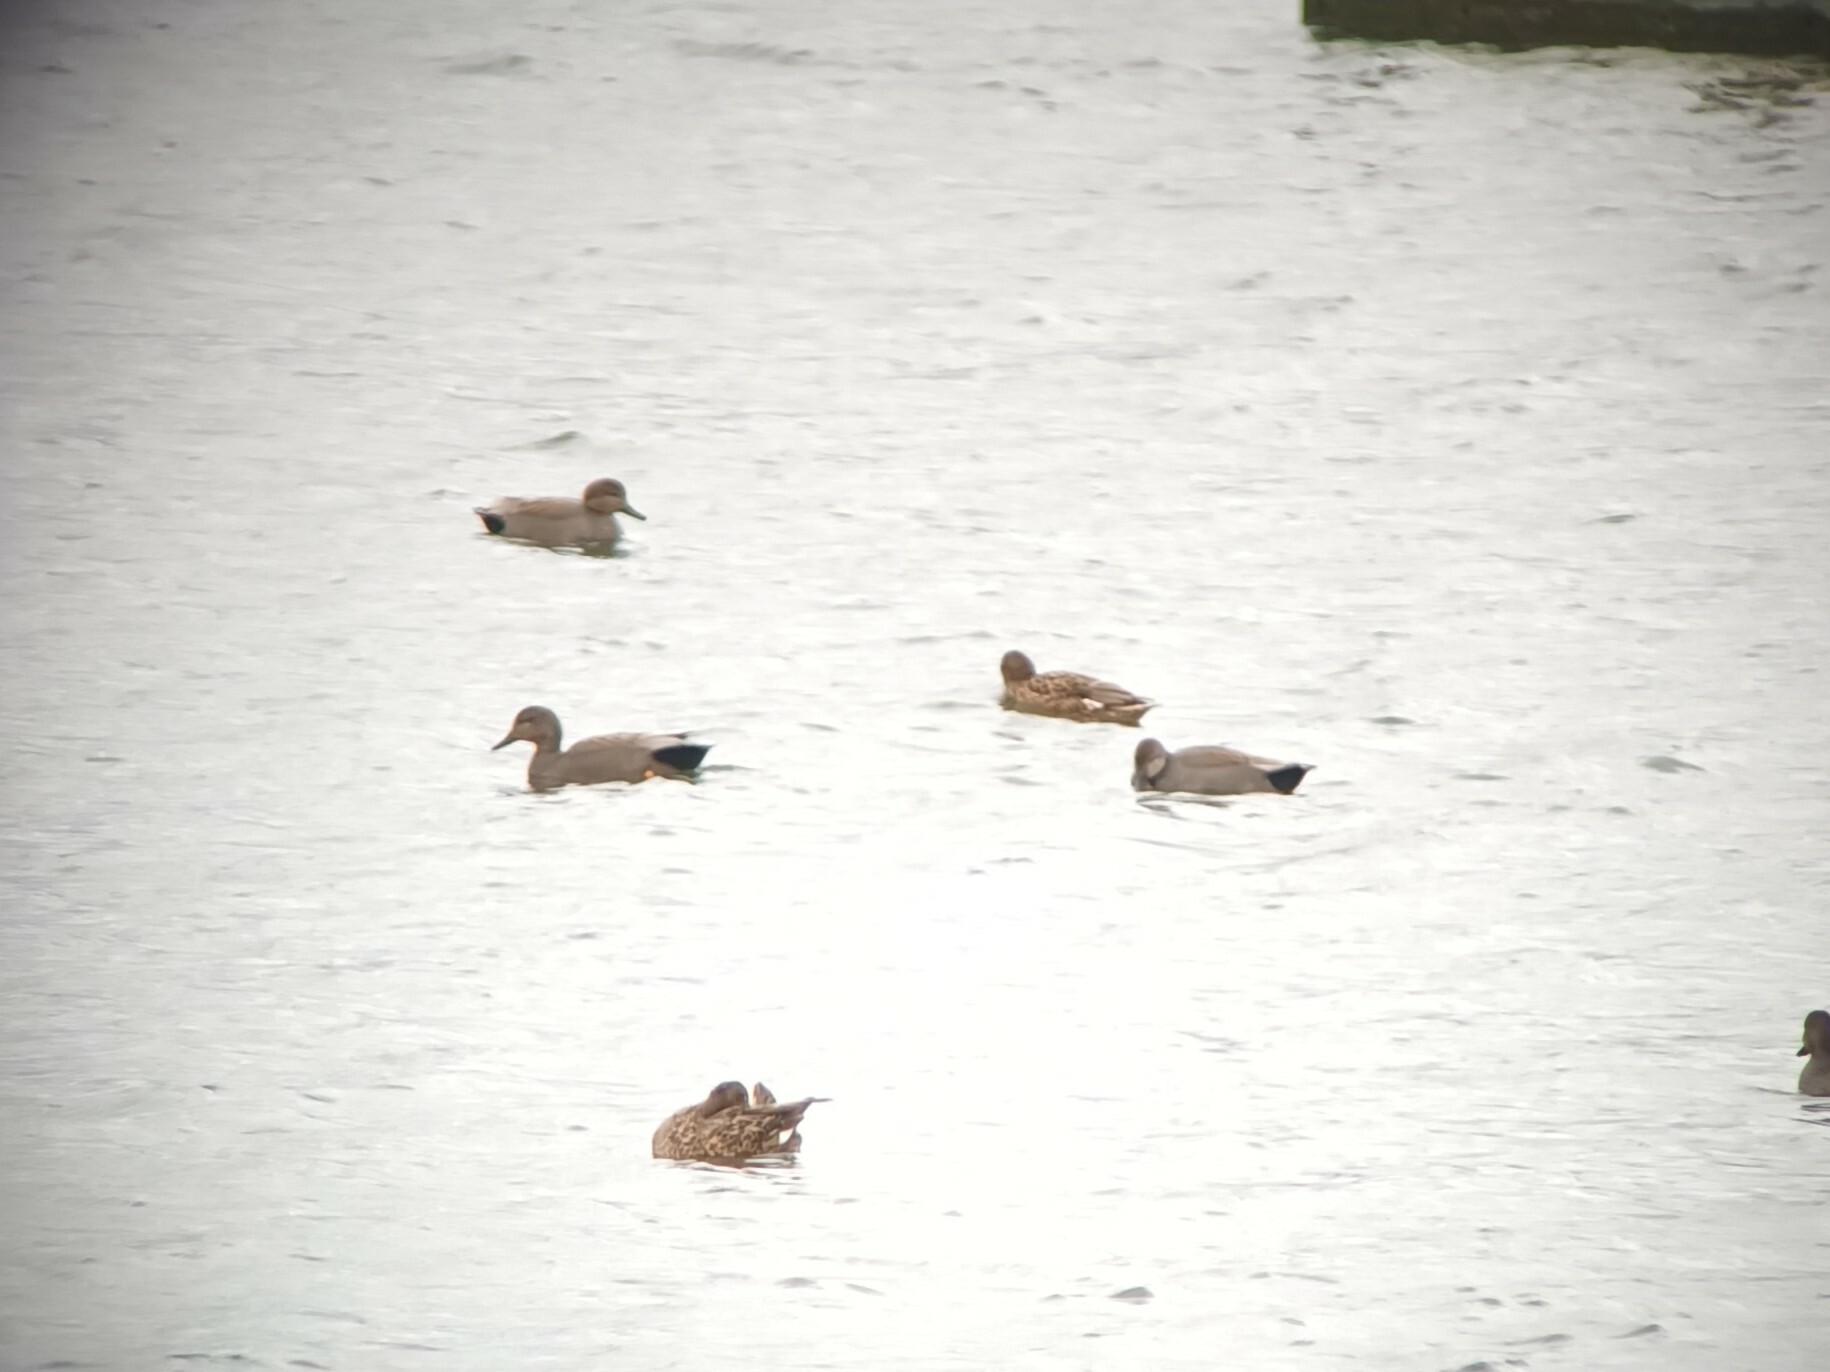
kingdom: Animalia
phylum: Chordata
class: Aves
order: Anseriformes
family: Anatidae
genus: Mareca
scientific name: Mareca strepera
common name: Gadwall
